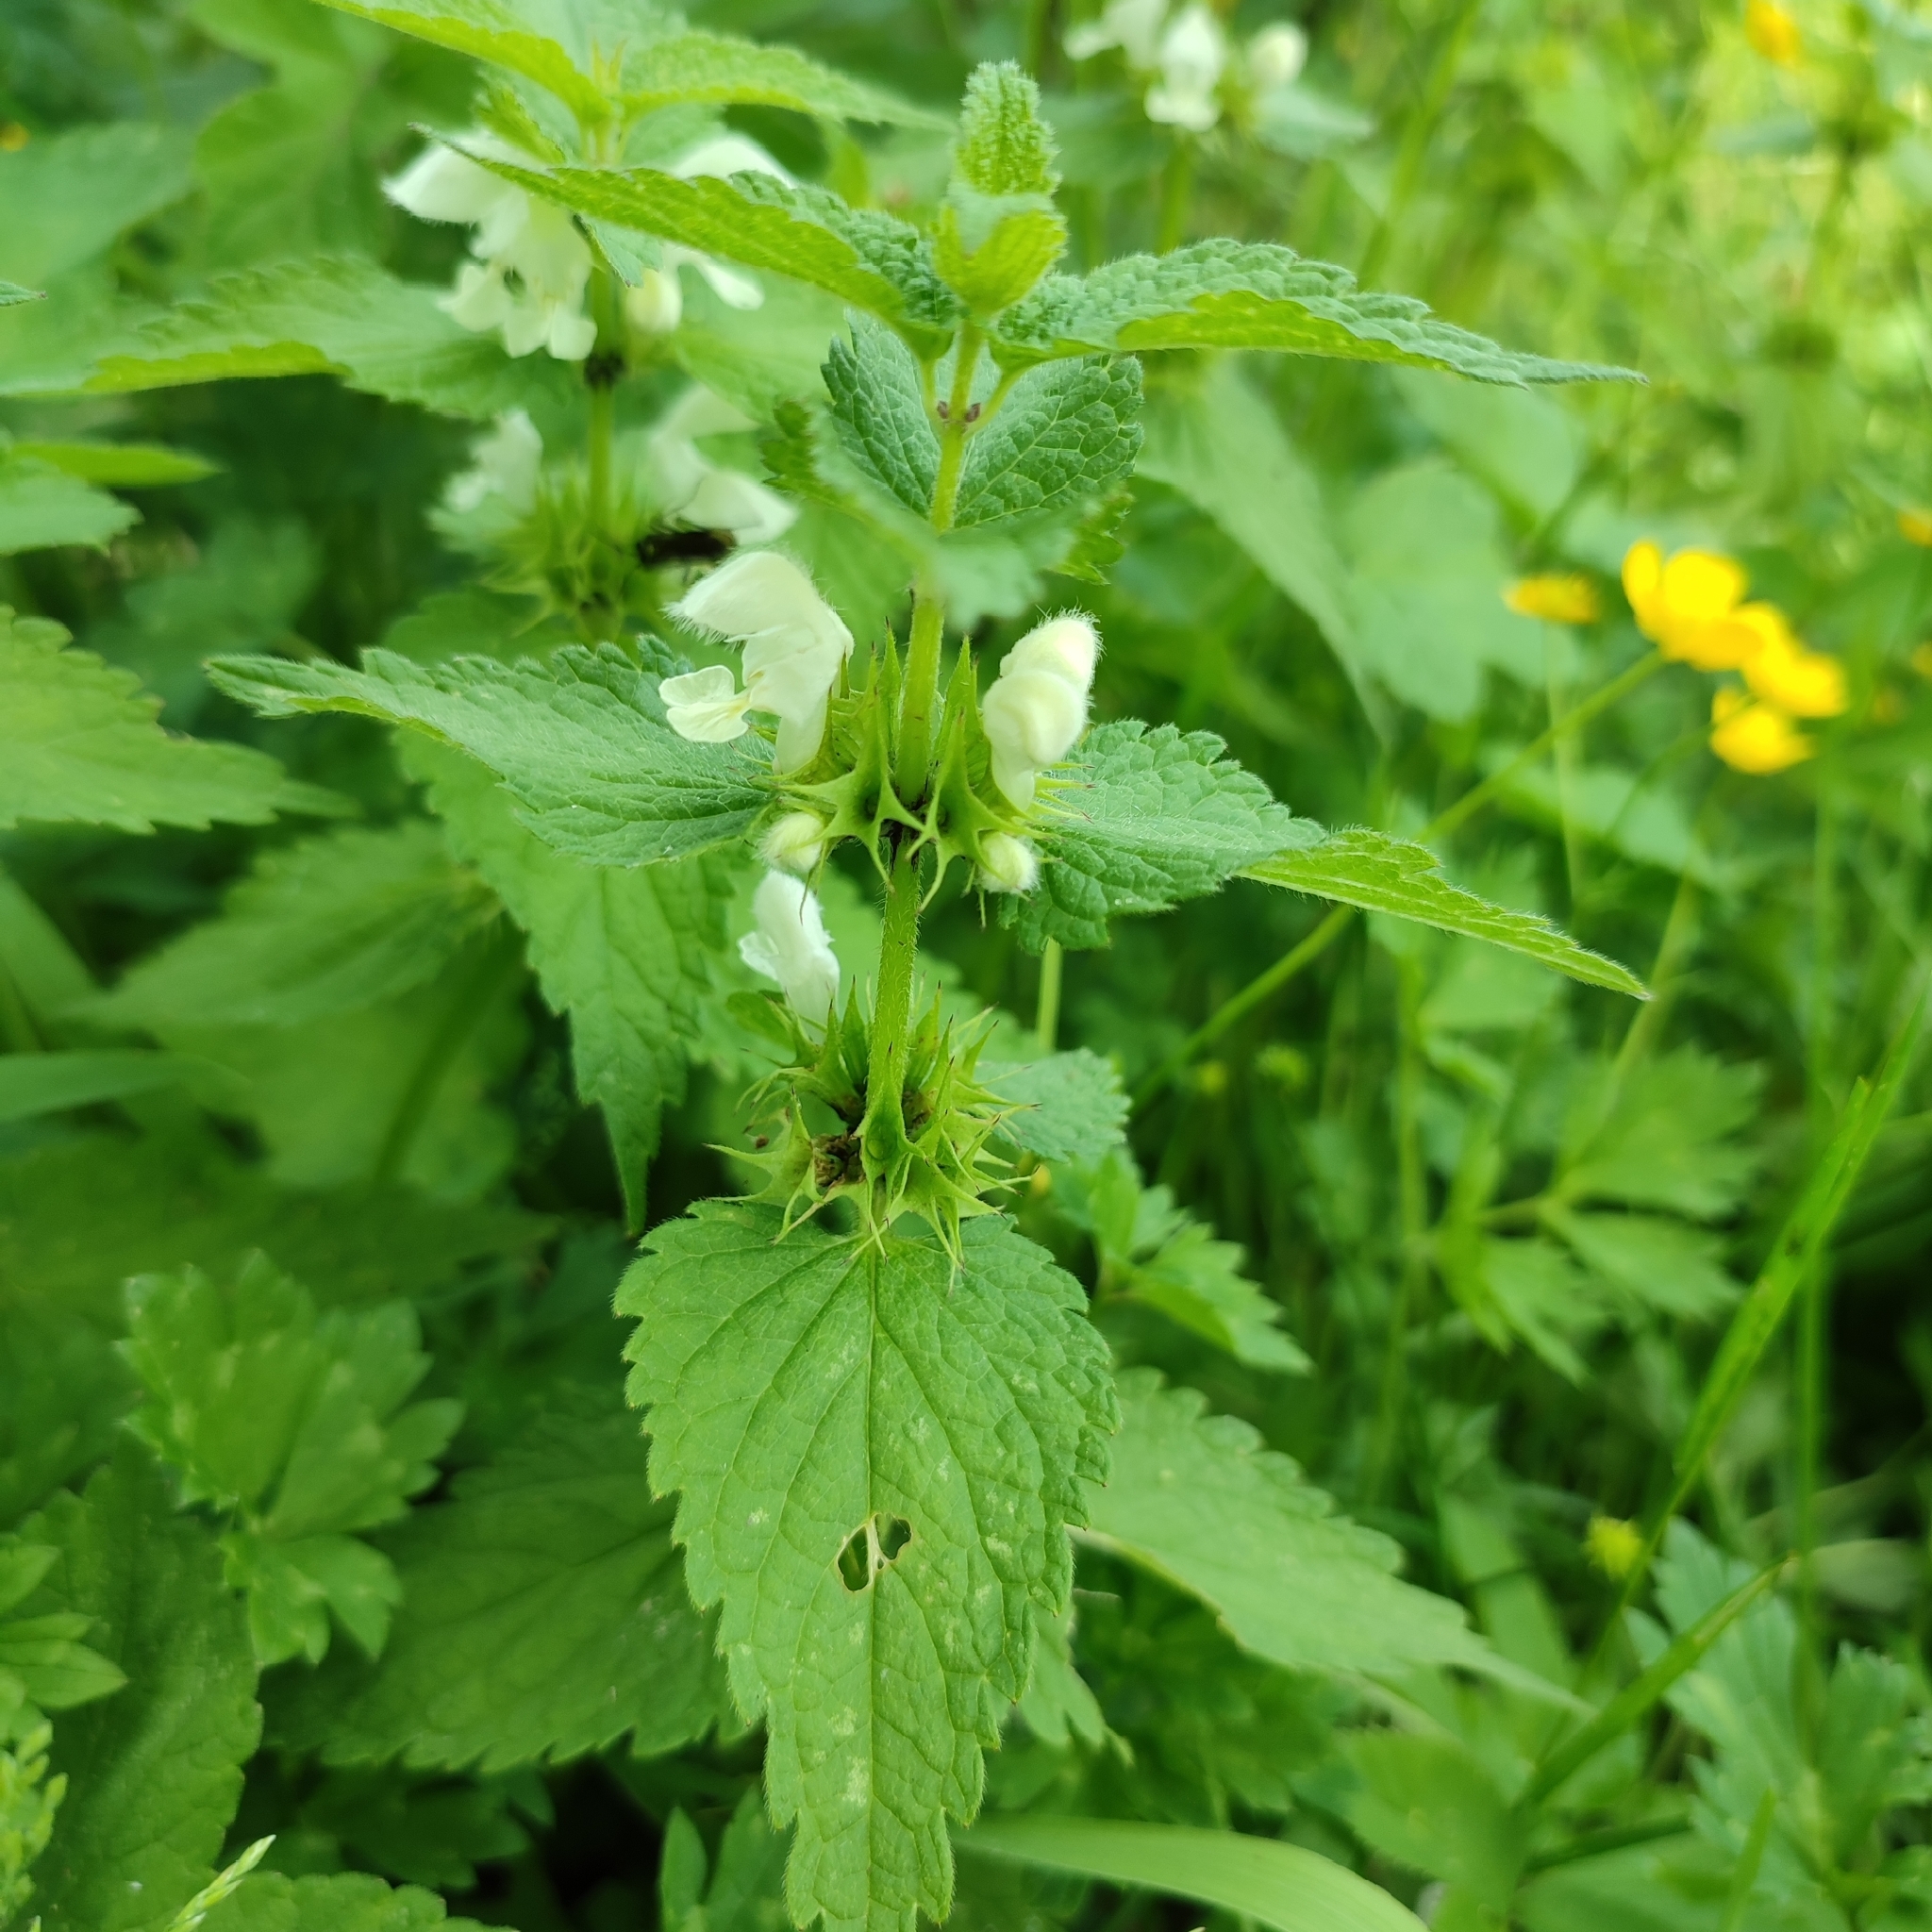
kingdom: Plantae
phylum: Tracheophyta
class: Magnoliopsida
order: Lamiales
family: Lamiaceae
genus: Lamium
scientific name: Lamium album
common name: White dead-nettle
